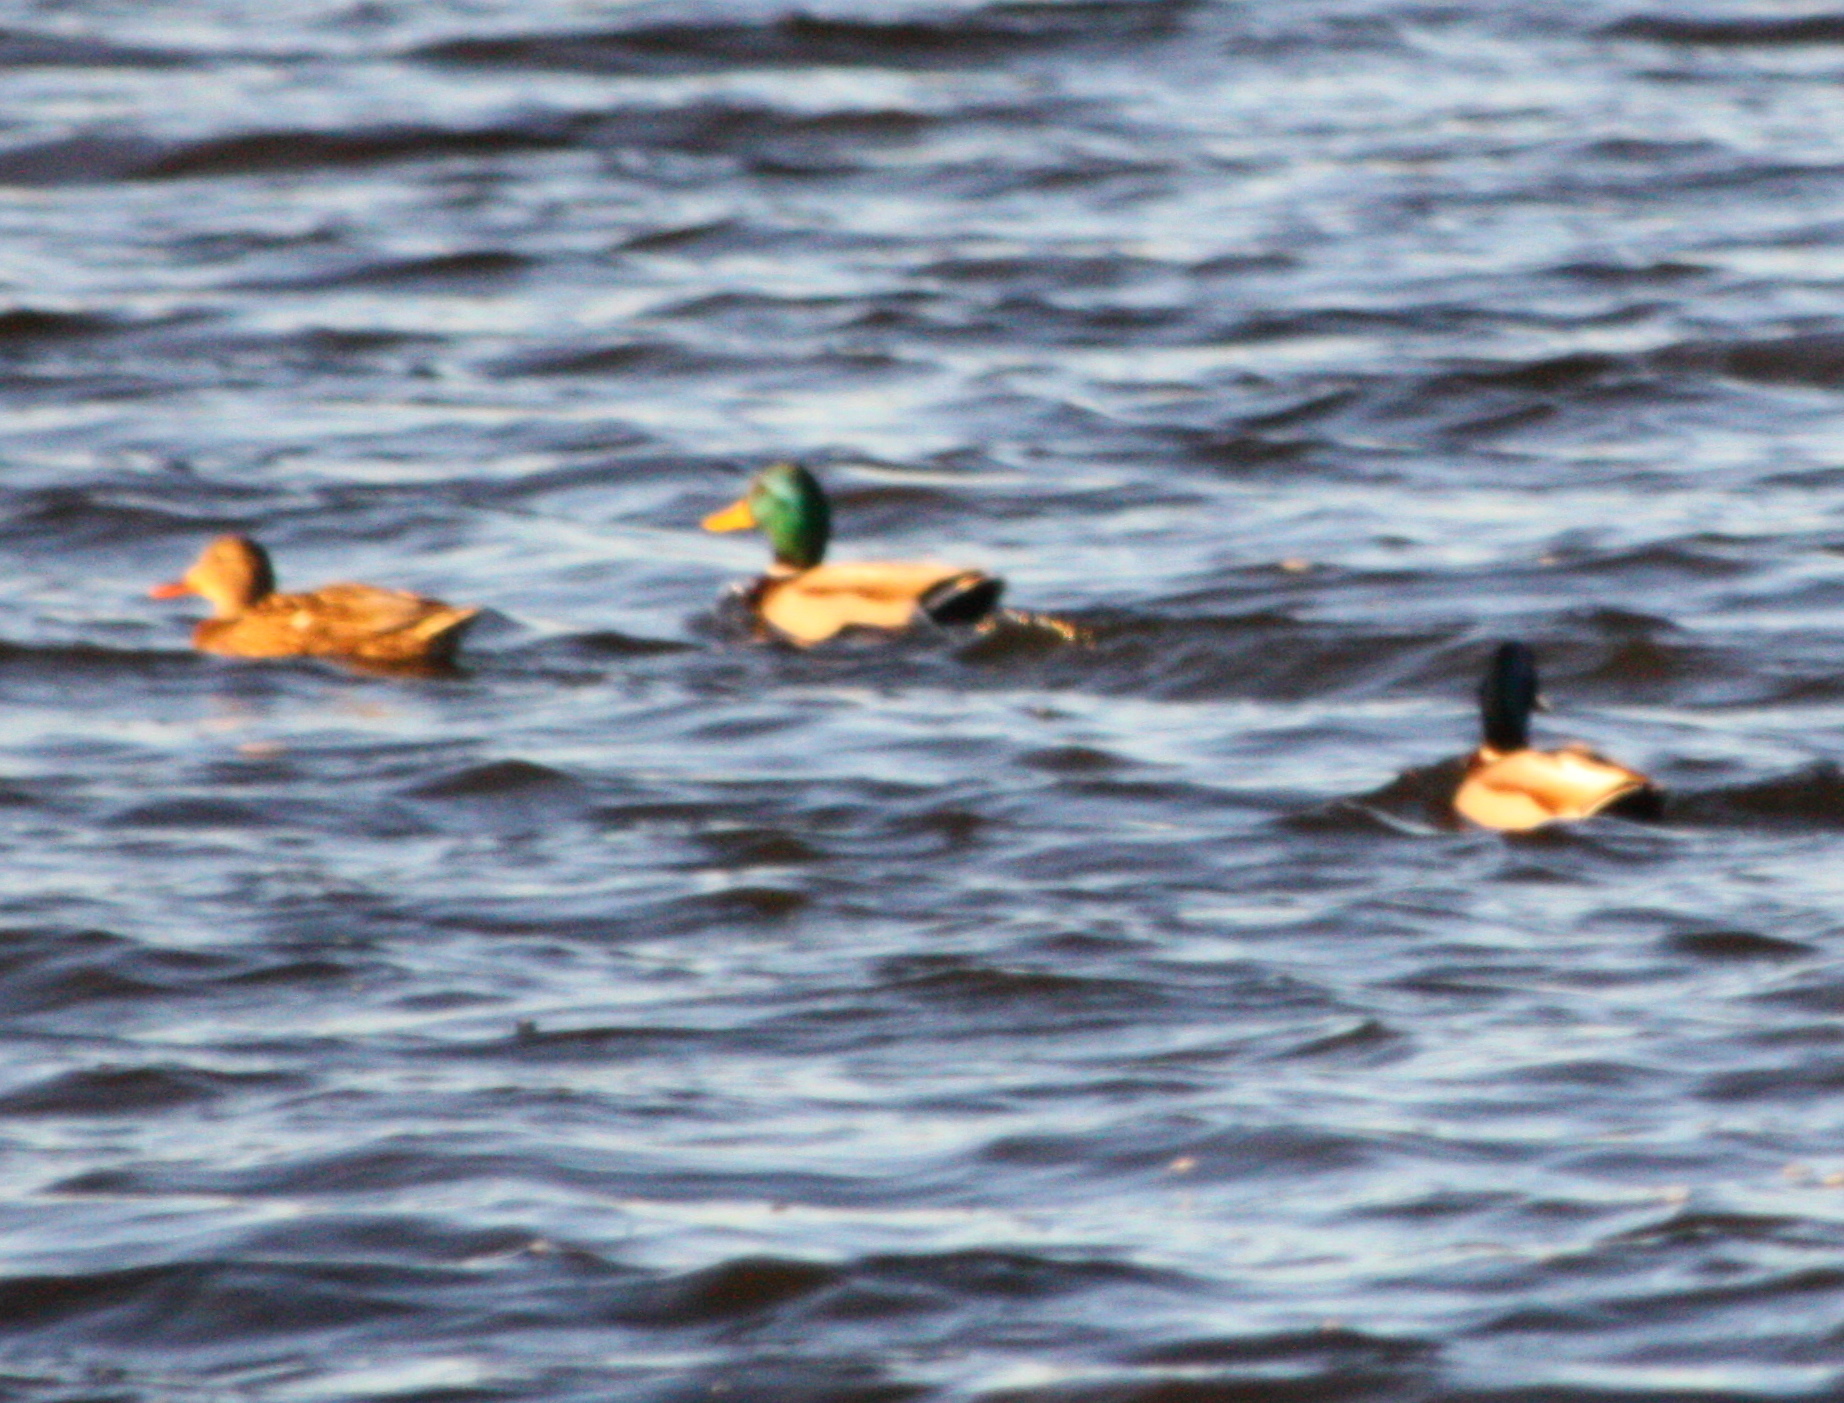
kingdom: Animalia
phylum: Chordata
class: Aves
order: Anseriformes
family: Anatidae
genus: Anas
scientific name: Anas platyrhynchos
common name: Mallard
